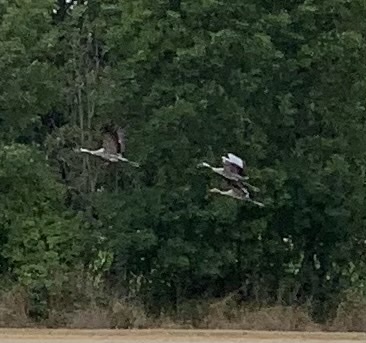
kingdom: Animalia
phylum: Chordata
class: Aves
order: Gruiformes
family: Gruidae
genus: Grus
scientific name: Grus grus
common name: Common crane
